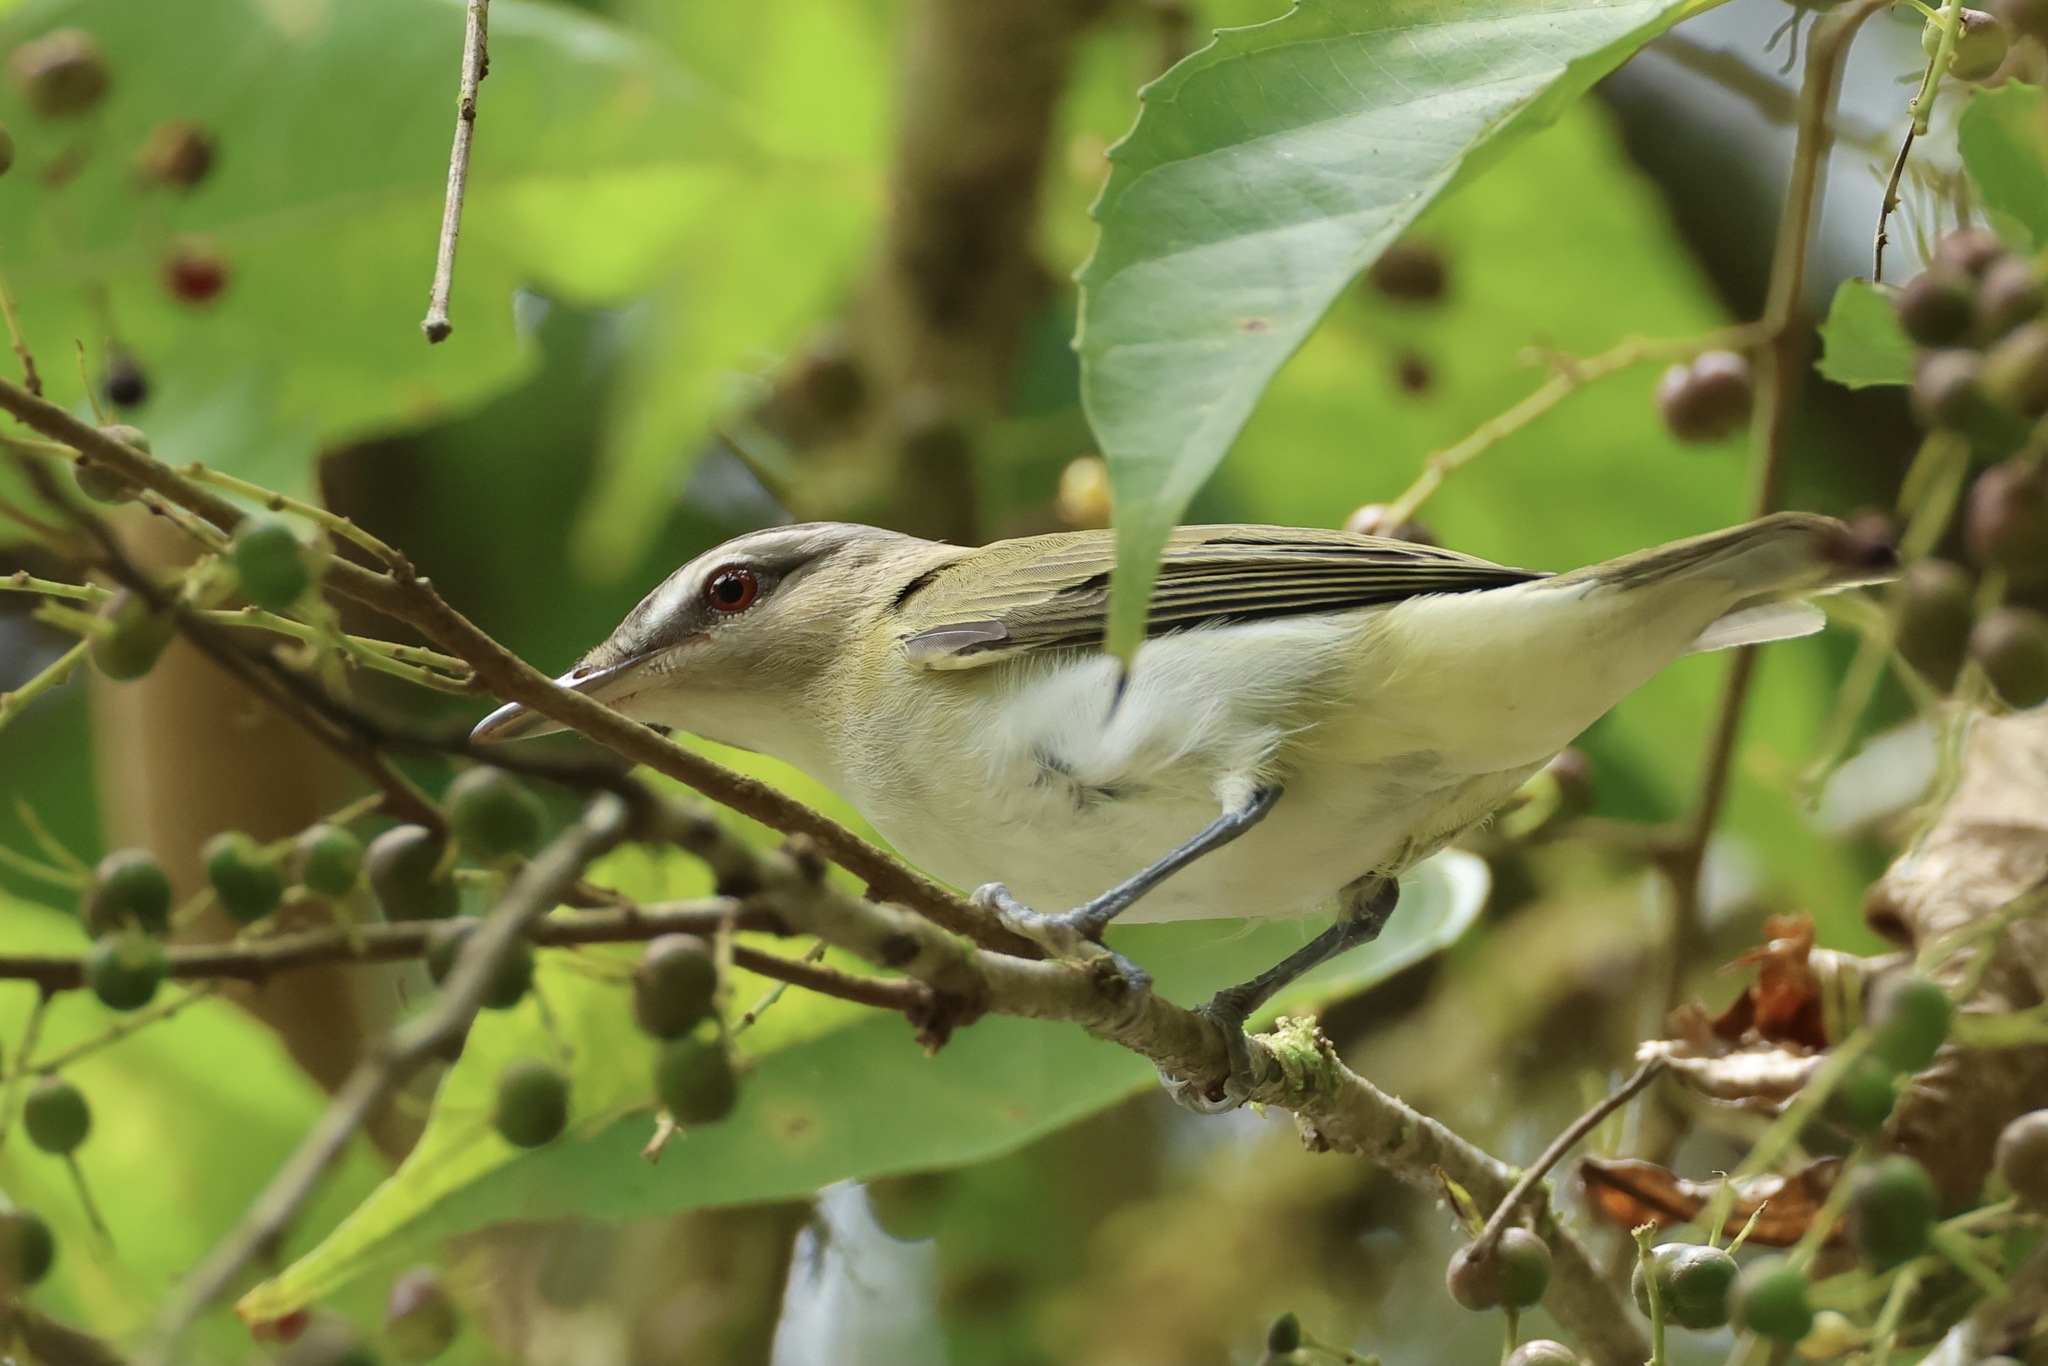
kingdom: Animalia
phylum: Chordata
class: Aves
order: Passeriformes
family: Vireonidae
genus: Vireo
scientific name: Vireo olivaceus
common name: Red-eyed vireo
